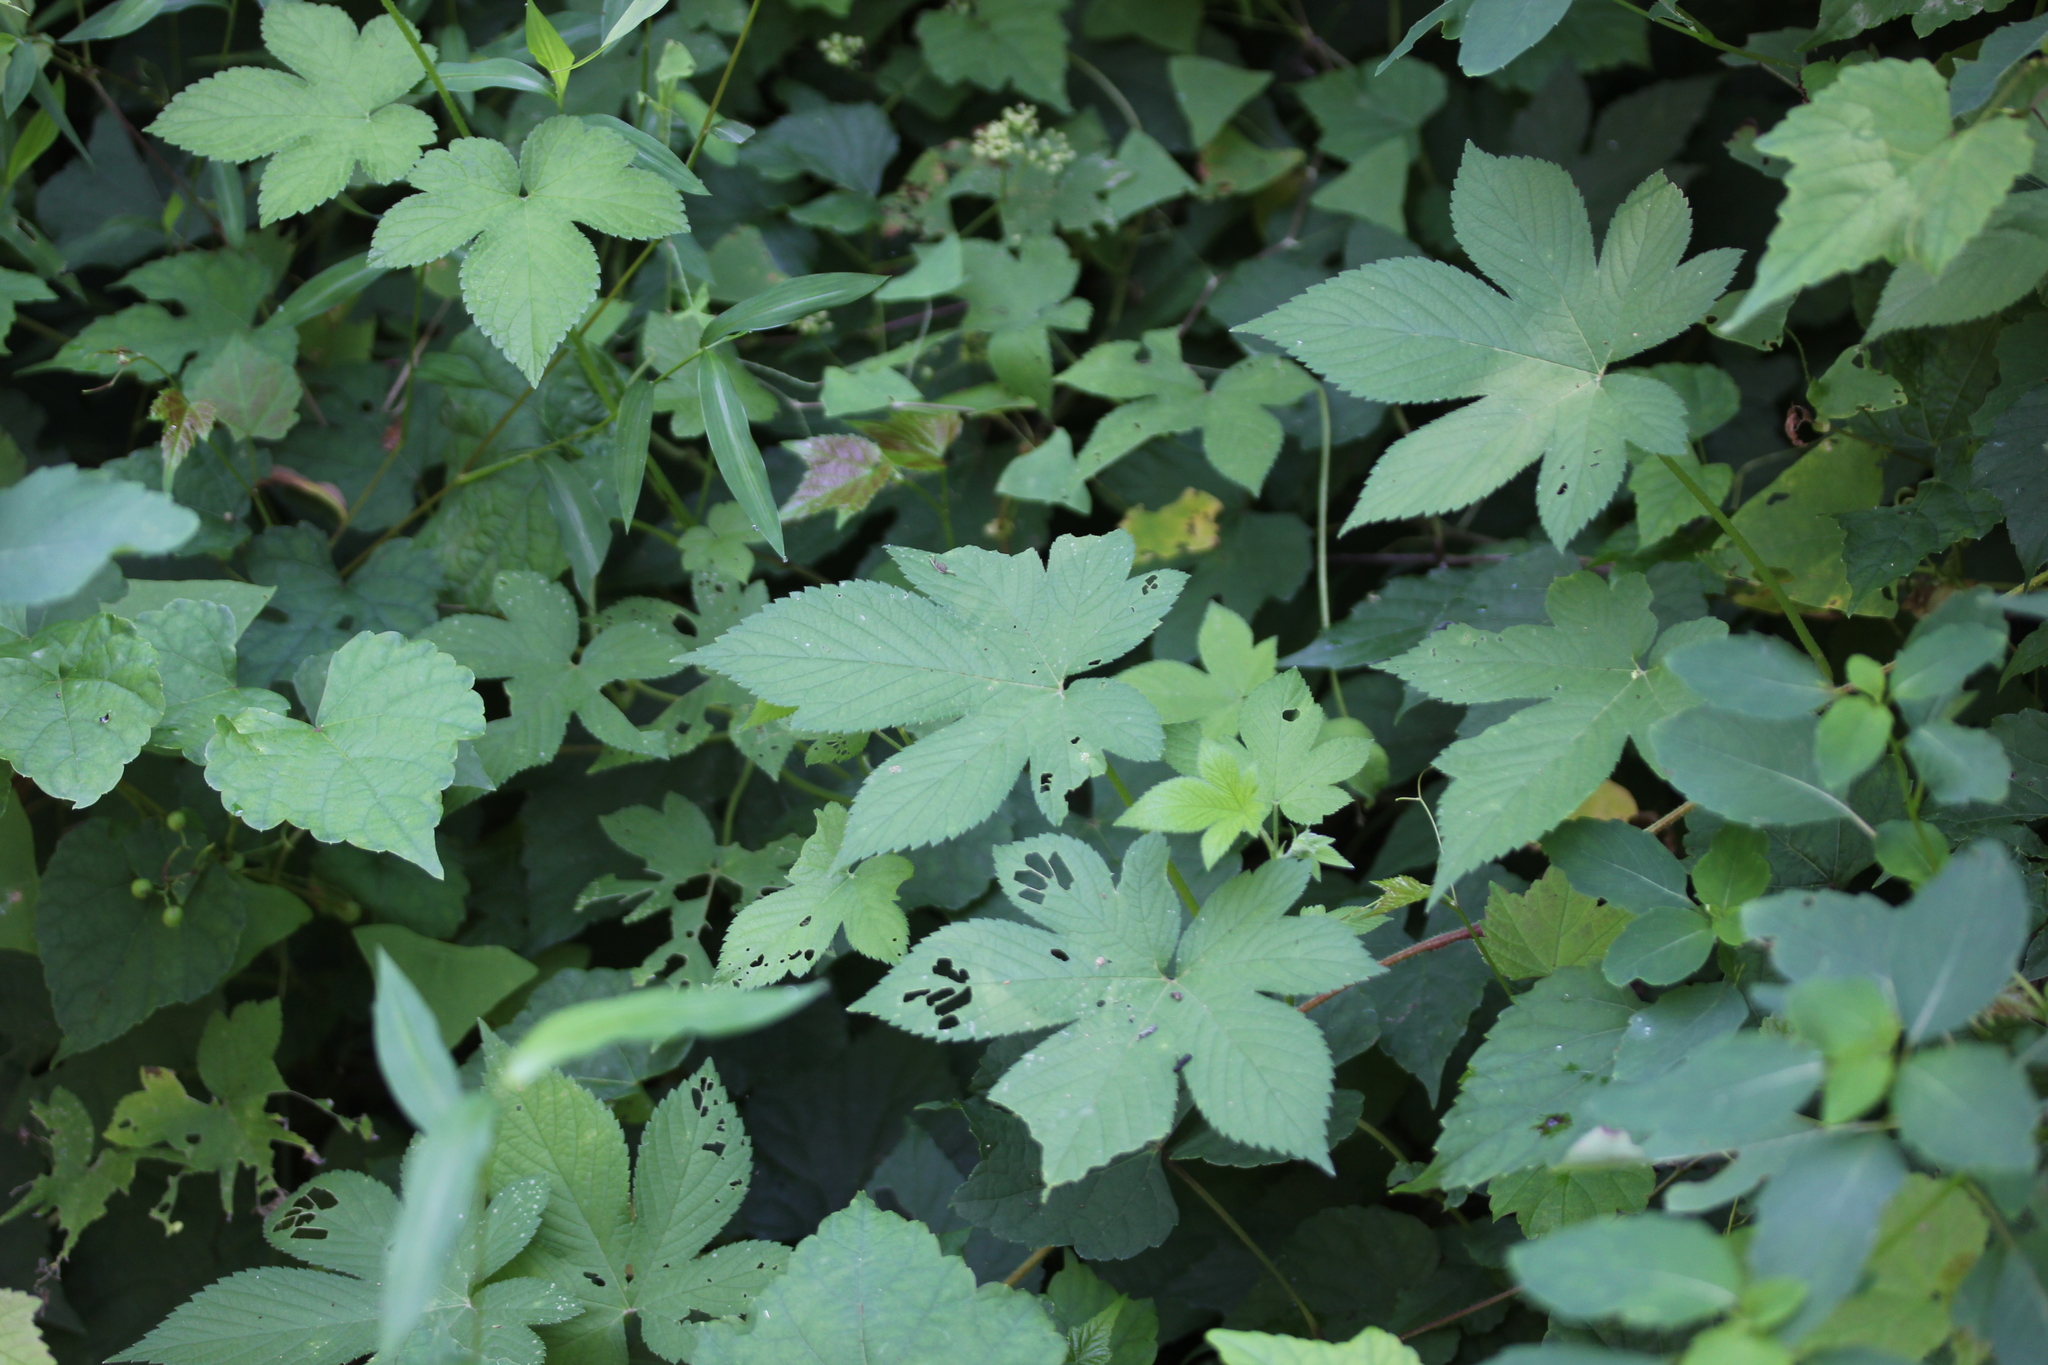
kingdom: Plantae
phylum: Tracheophyta
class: Magnoliopsida
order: Rosales
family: Cannabaceae
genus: Humulus
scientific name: Humulus scandens
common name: Japanese hop
